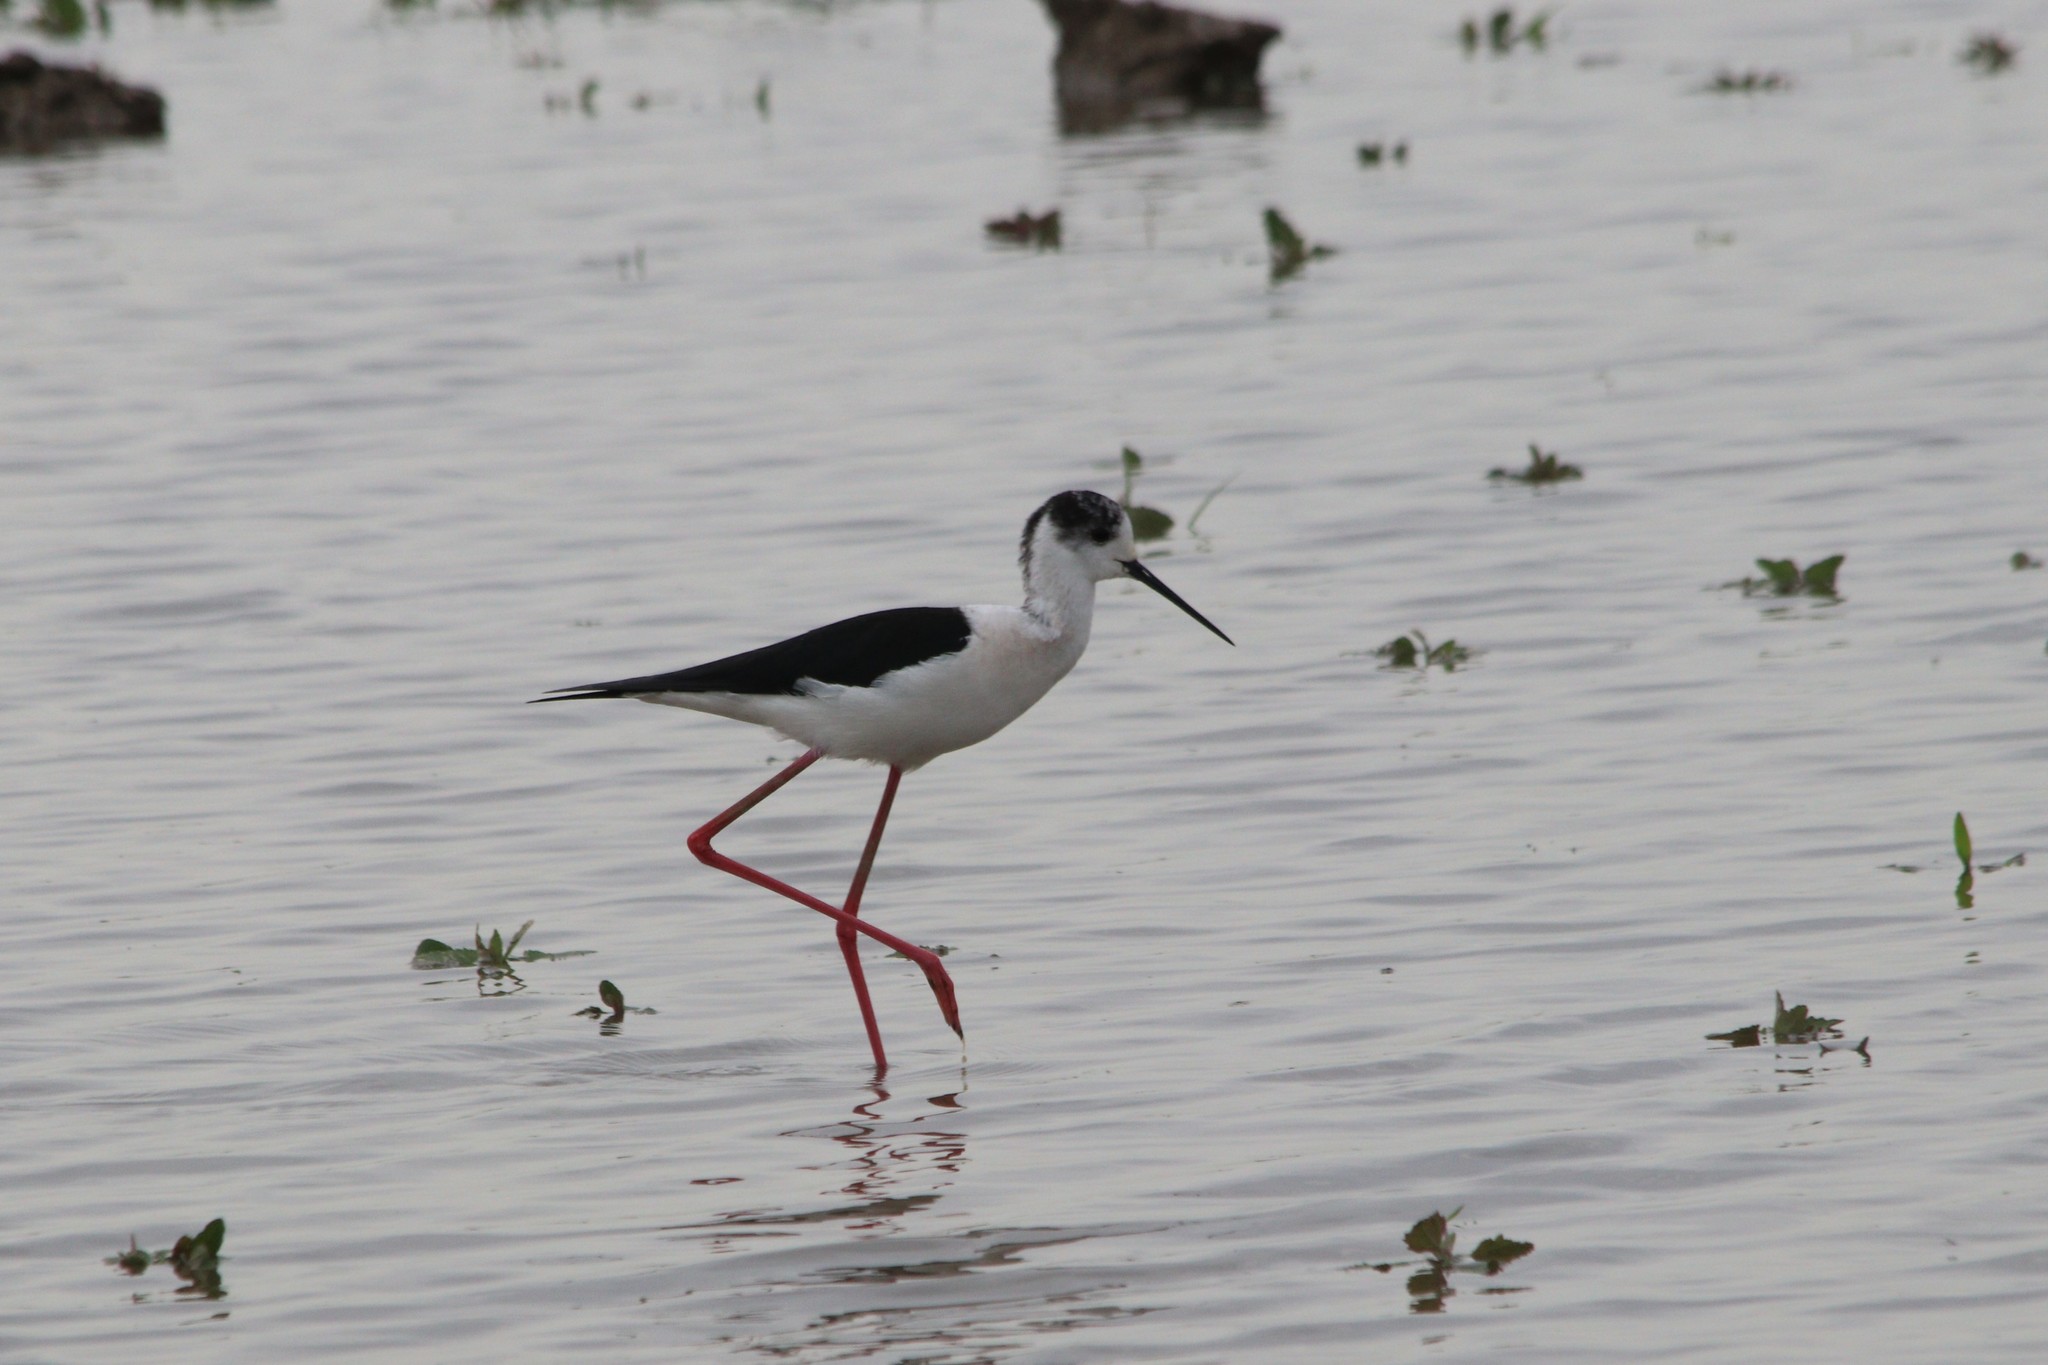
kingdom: Animalia
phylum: Chordata
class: Aves
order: Charadriiformes
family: Recurvirostridae
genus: Himantopus
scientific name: Himantopus himantopus
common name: Black-winged stilt
